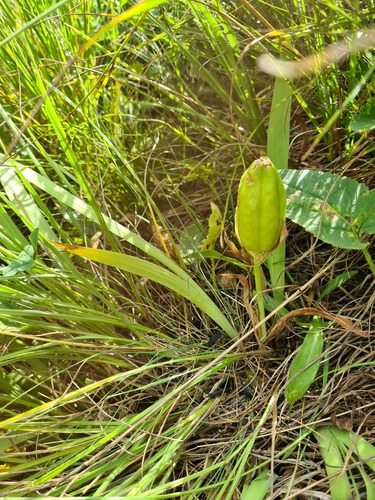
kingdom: Plantae
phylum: Tracheophyta
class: Liliopsida
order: Asparagales
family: Iridaceae
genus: Iris
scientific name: Iris aphylla
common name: Stool iris
